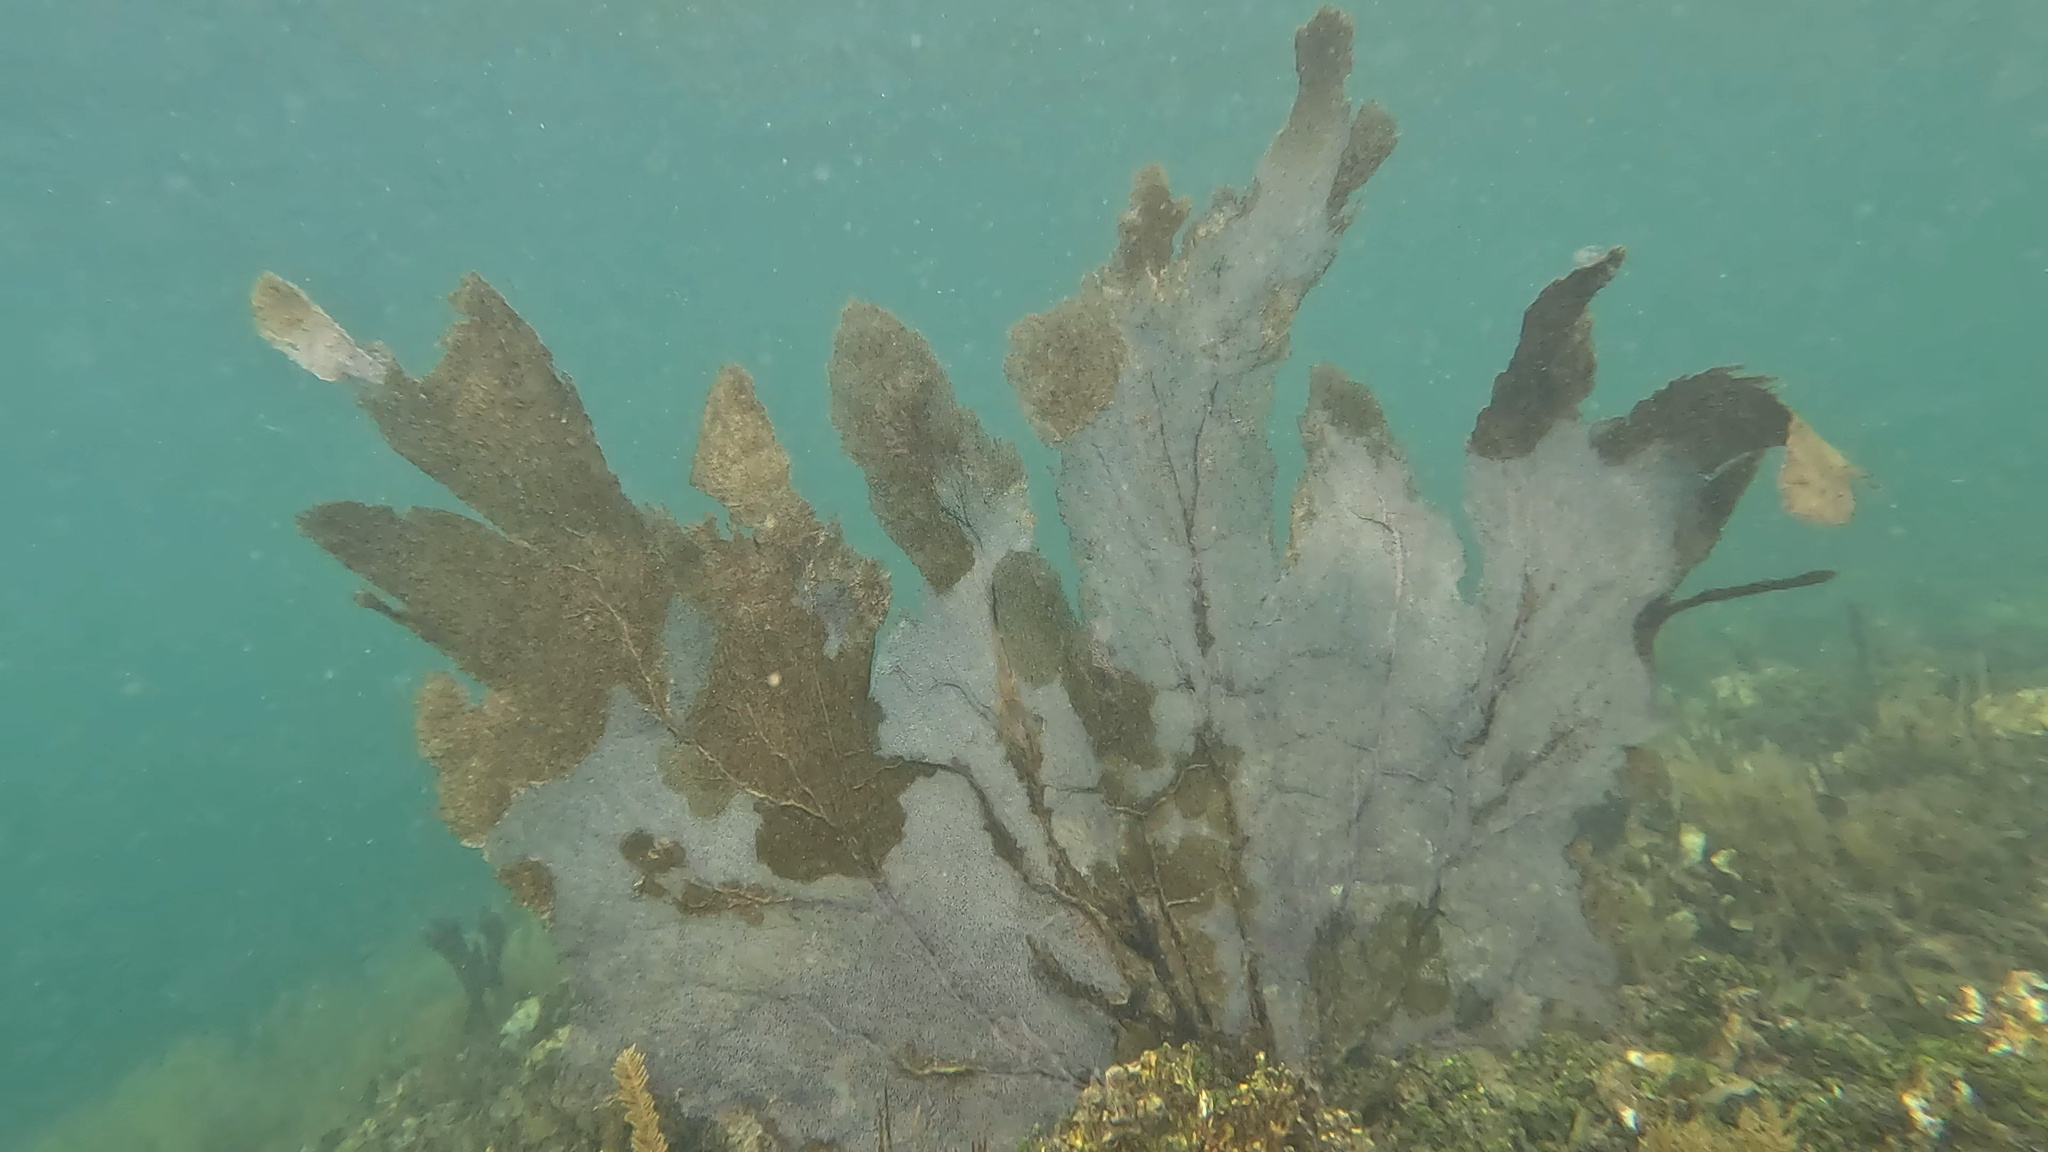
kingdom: Animalia
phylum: Cnidaria
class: Anthozoa
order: Malacalcyonacea
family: Gorgoniidae
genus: Gorgonia
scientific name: Gorgonia ventalina
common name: Common sea fan
